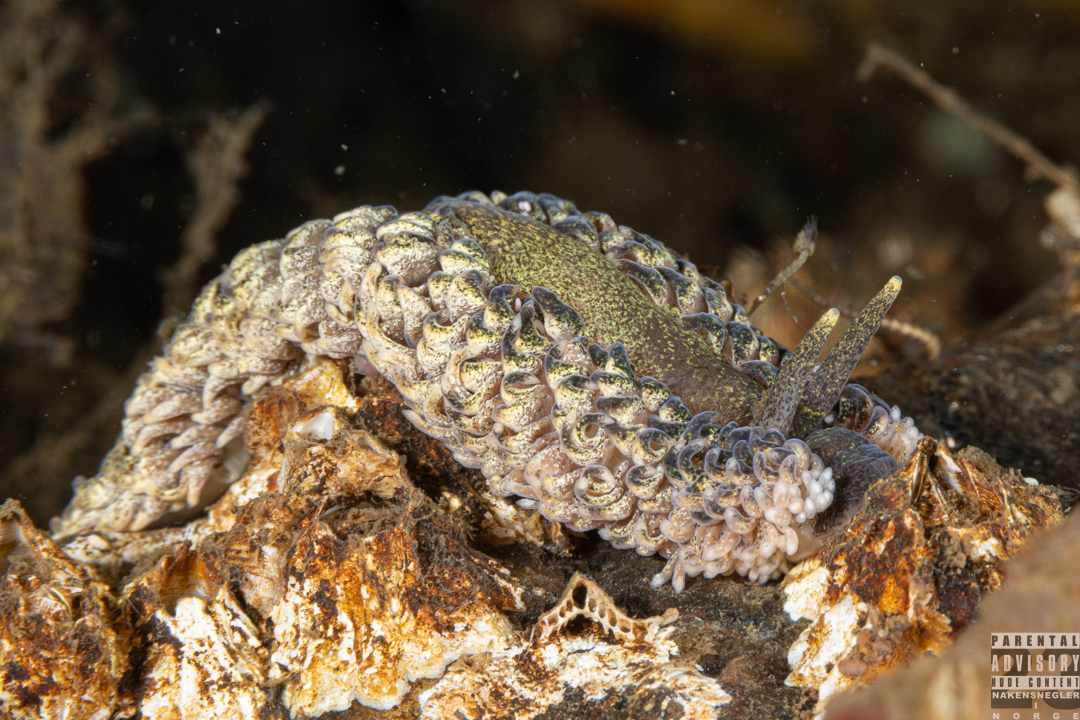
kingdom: Animalia
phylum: Mollusca
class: Gastropoda
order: Nudibranchia
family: Aeolidiidae
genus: Aeolidia
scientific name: Aeolidia papillosa
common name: Common grey sea slug
